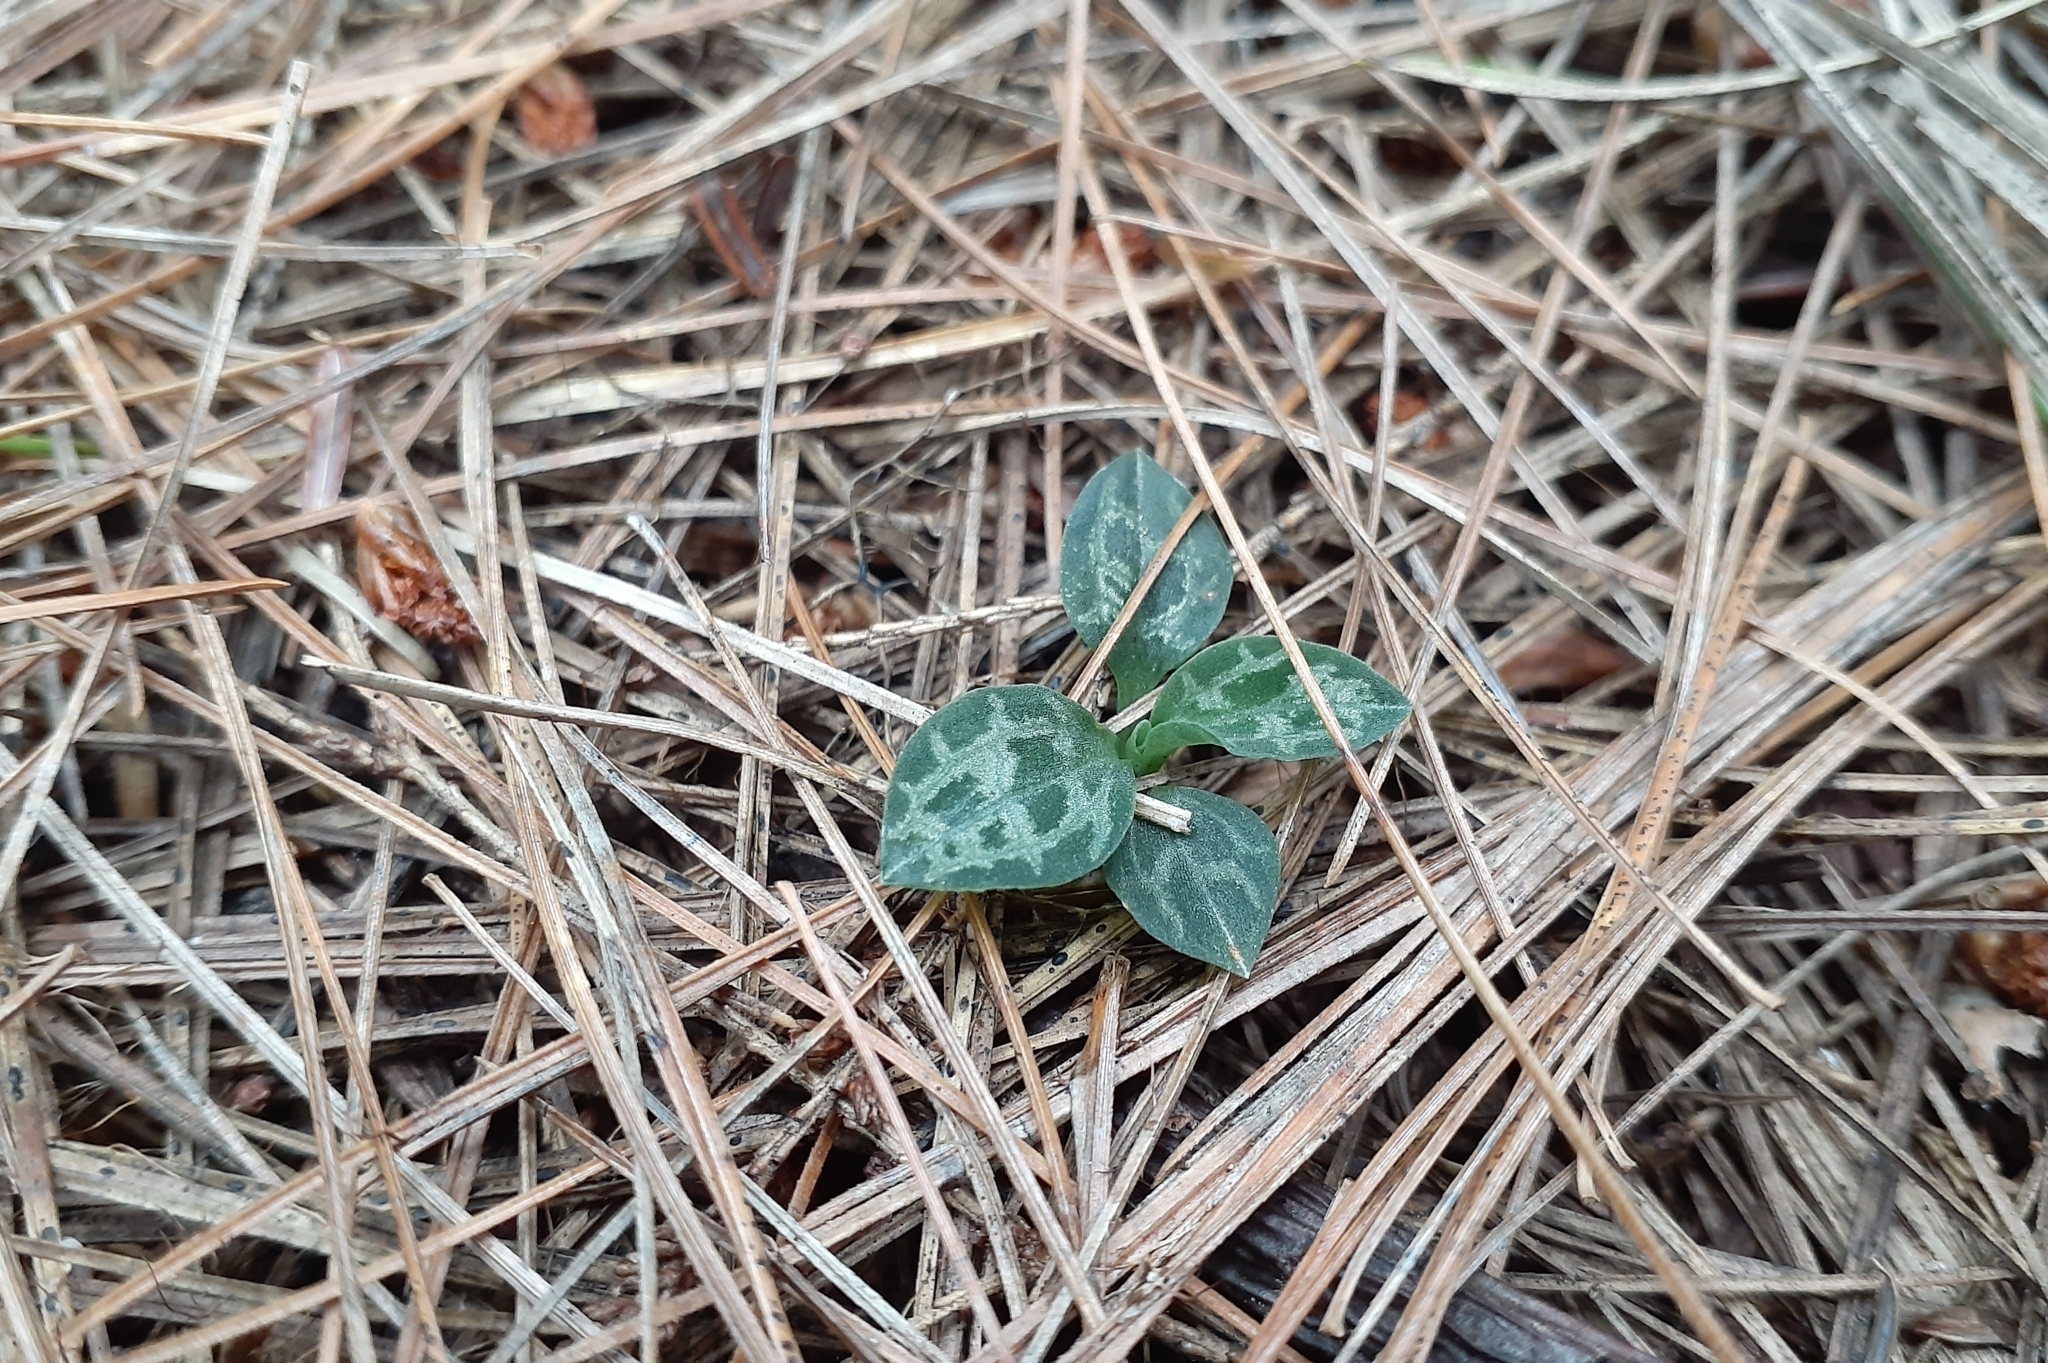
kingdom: Plantae
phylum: Tracheophyta
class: Liliopsida
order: Asparagales
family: Orchidaceae
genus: Goodyera
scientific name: Goodyera repens
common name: Creeping lady's-tresses
